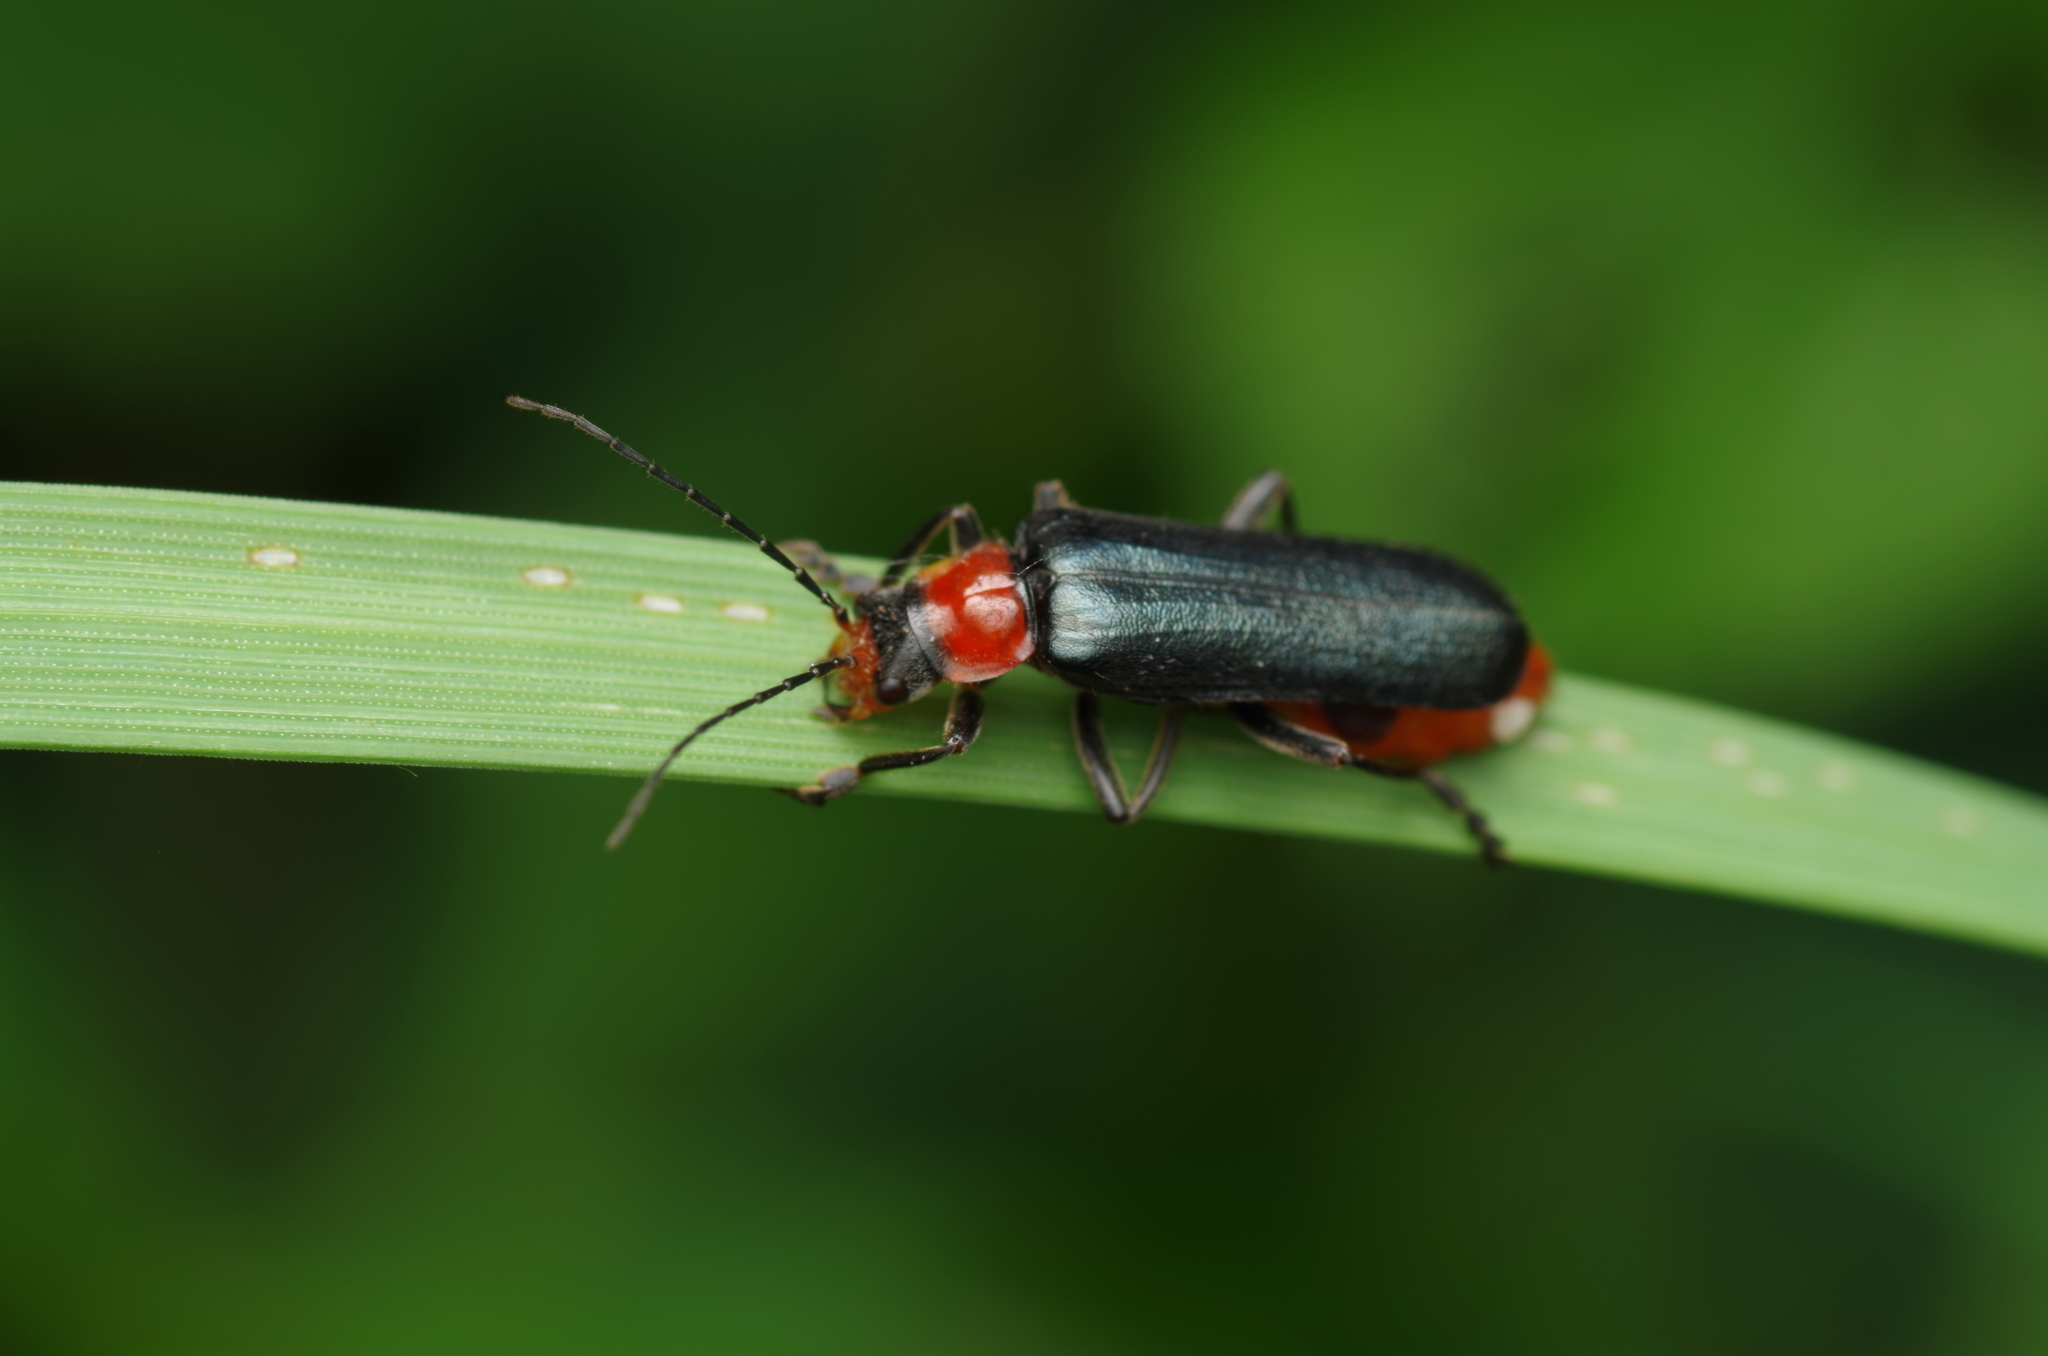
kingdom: Animalia
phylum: Arthropoda
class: Insecta
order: Coleoptera
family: Cantharidae
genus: Ancistronycha
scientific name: Ancistronycha abdominalis
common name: Blue soldier beetle
